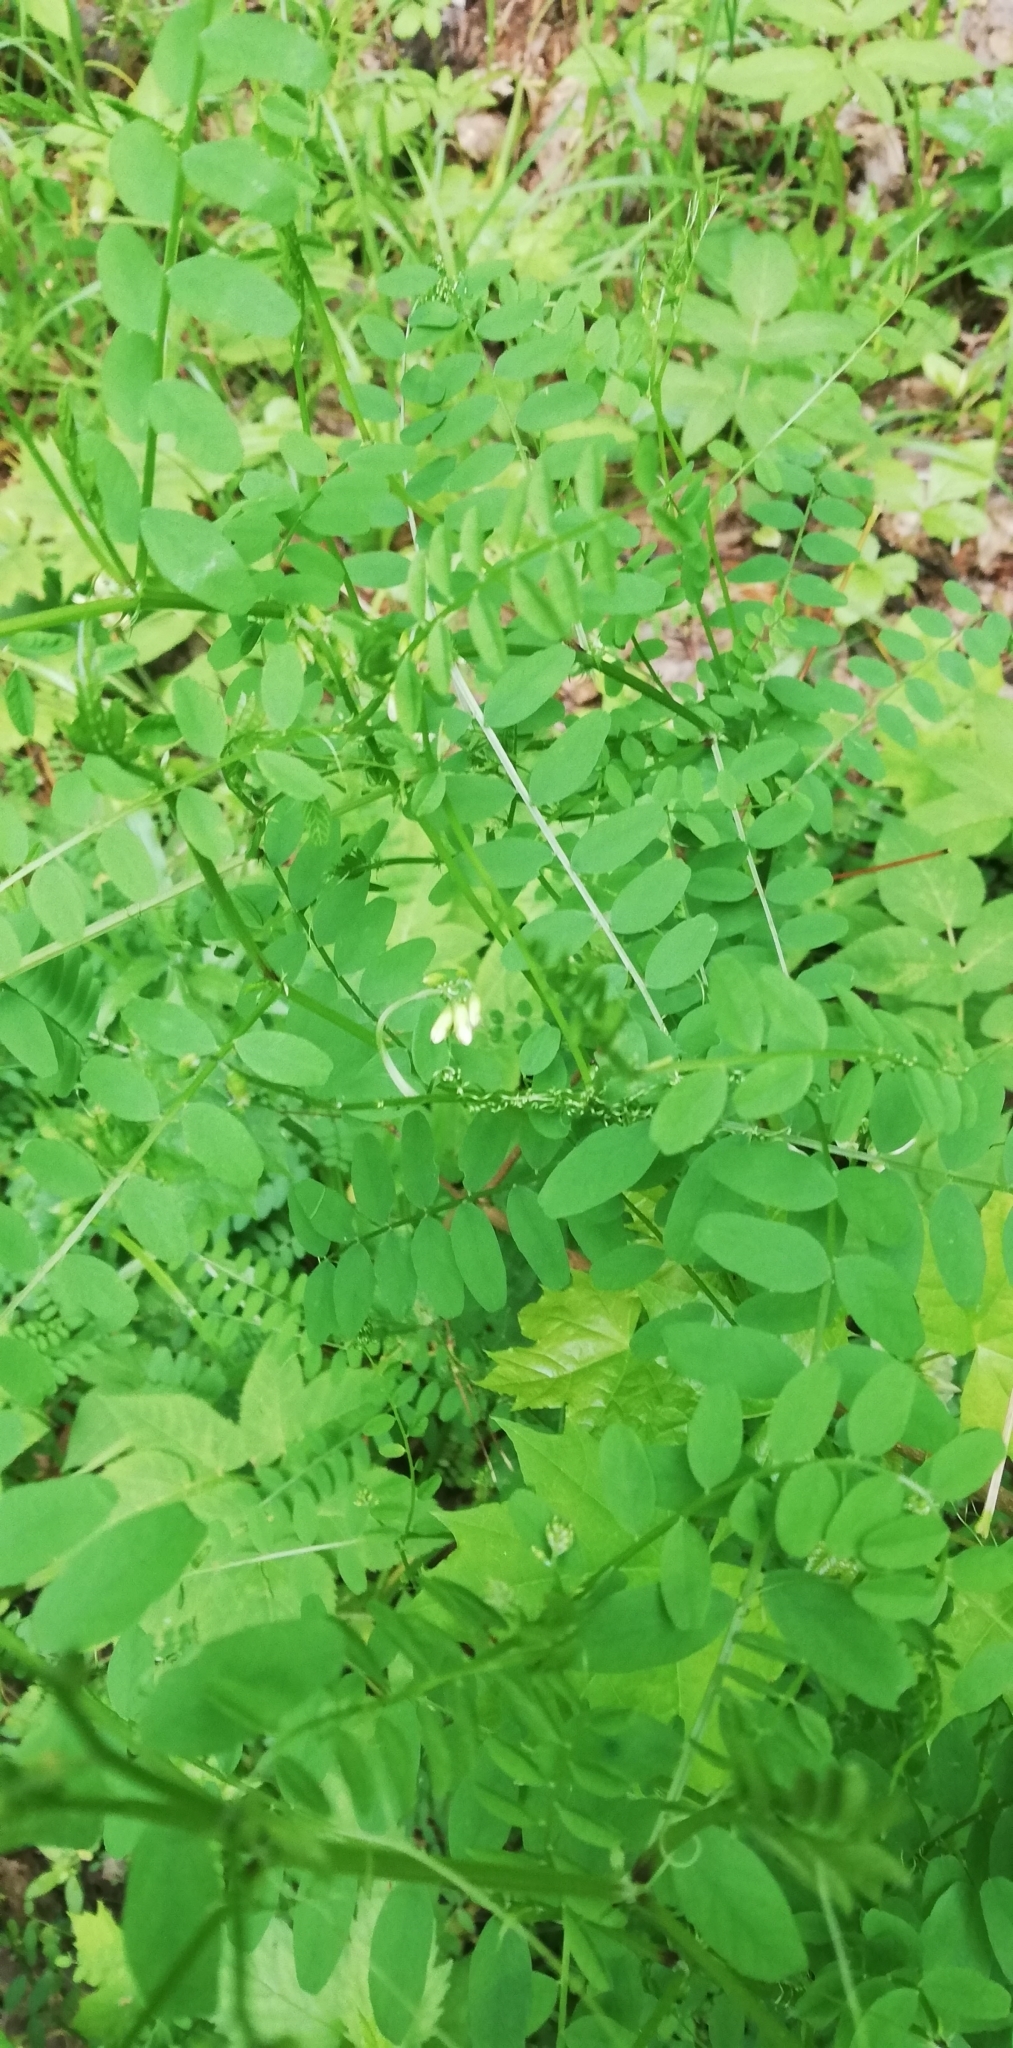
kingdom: Plantae
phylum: Tracheophyta
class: Magnoliopsida
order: Fabales
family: Fabaceae
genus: Vicia
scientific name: Vicia sylvatica
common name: Wood vetch
